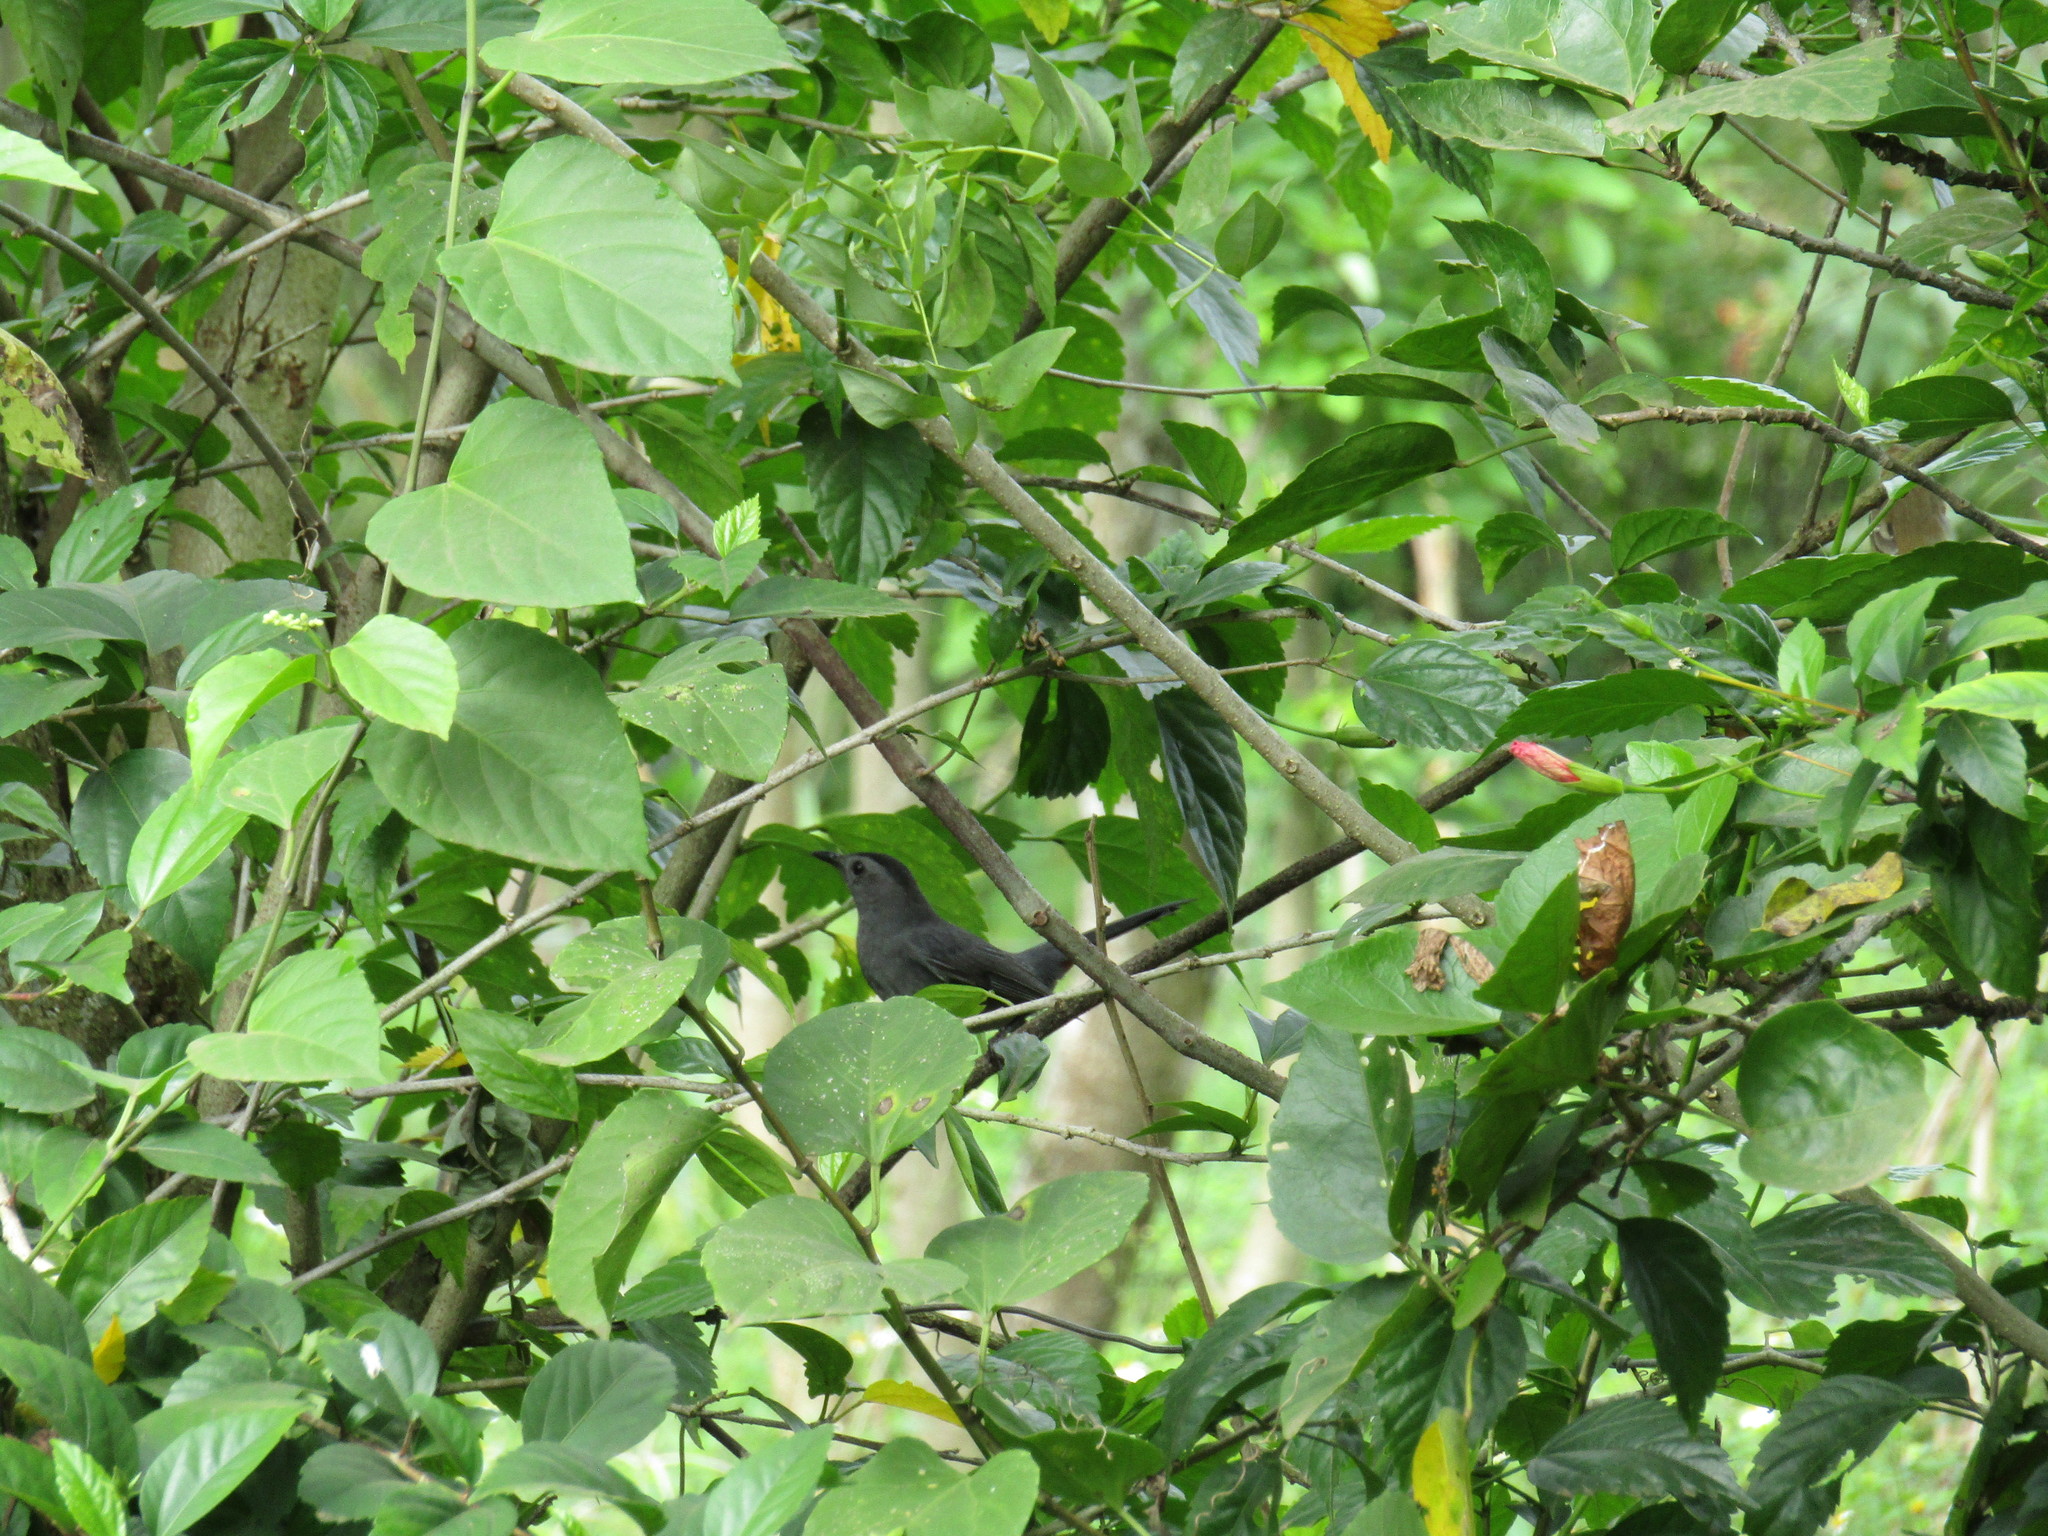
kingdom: Animalia
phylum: Chordata
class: Aves
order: Passeriformes
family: Mimidae
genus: Dumetella
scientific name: Dumetella carolinensis
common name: Gray catbird
